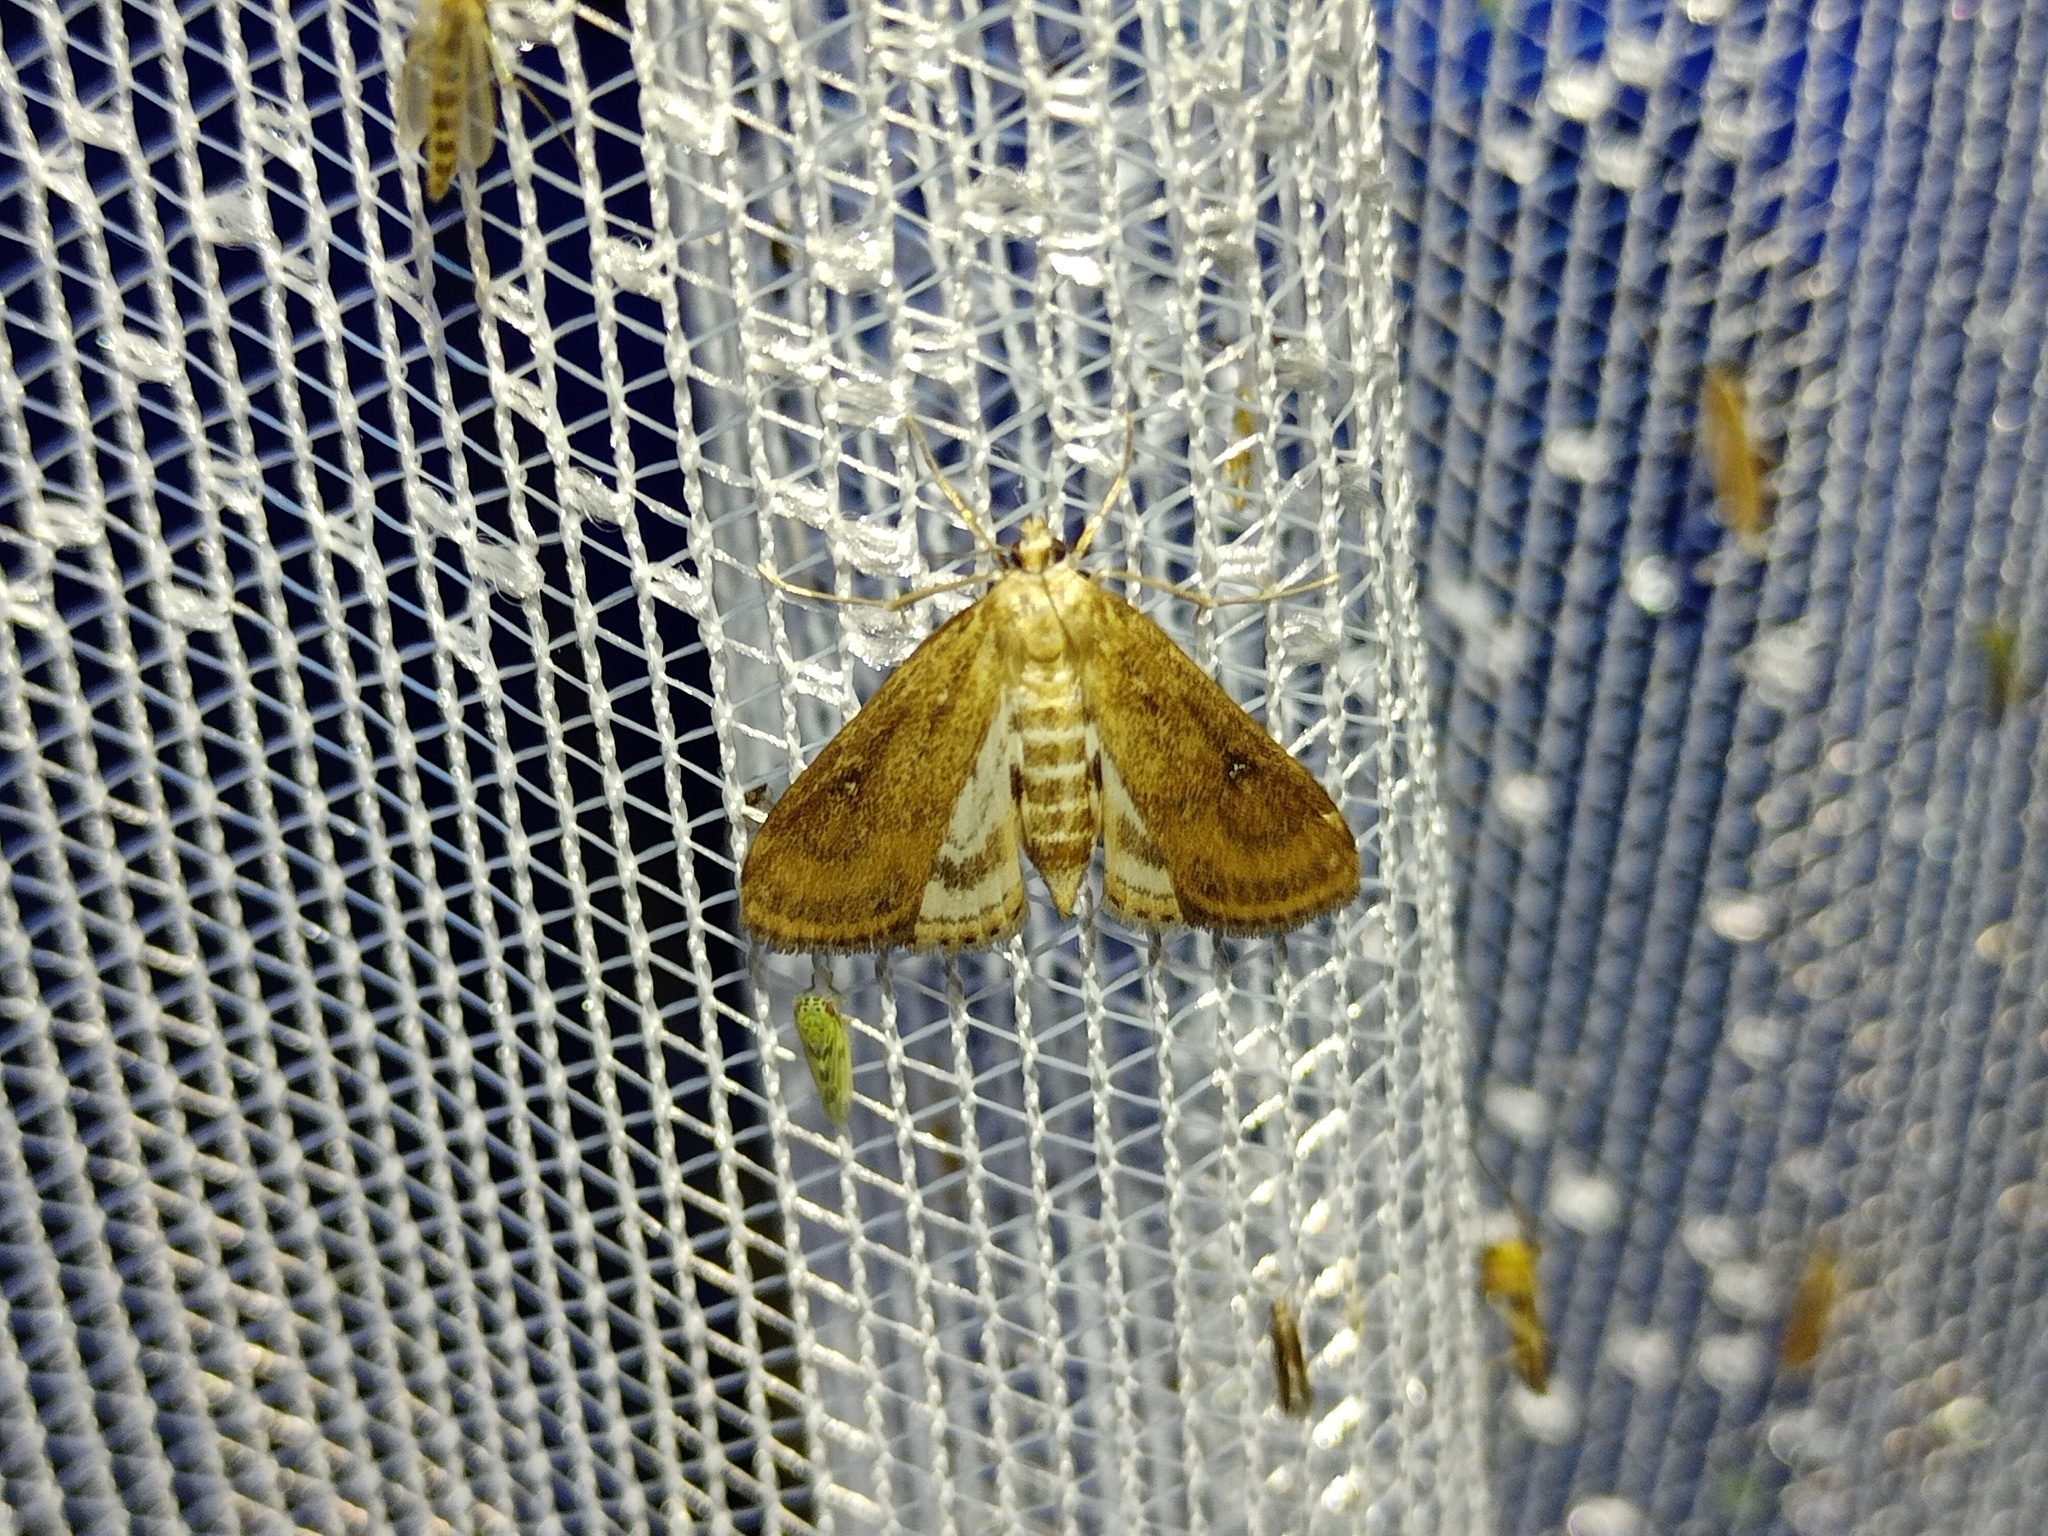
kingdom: Animalia
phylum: Arthropoda
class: Insecta
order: Lepidoptera
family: Crambidae
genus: Parapoynx
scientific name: Parapoynx stratiotata
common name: Ringed china-mark
